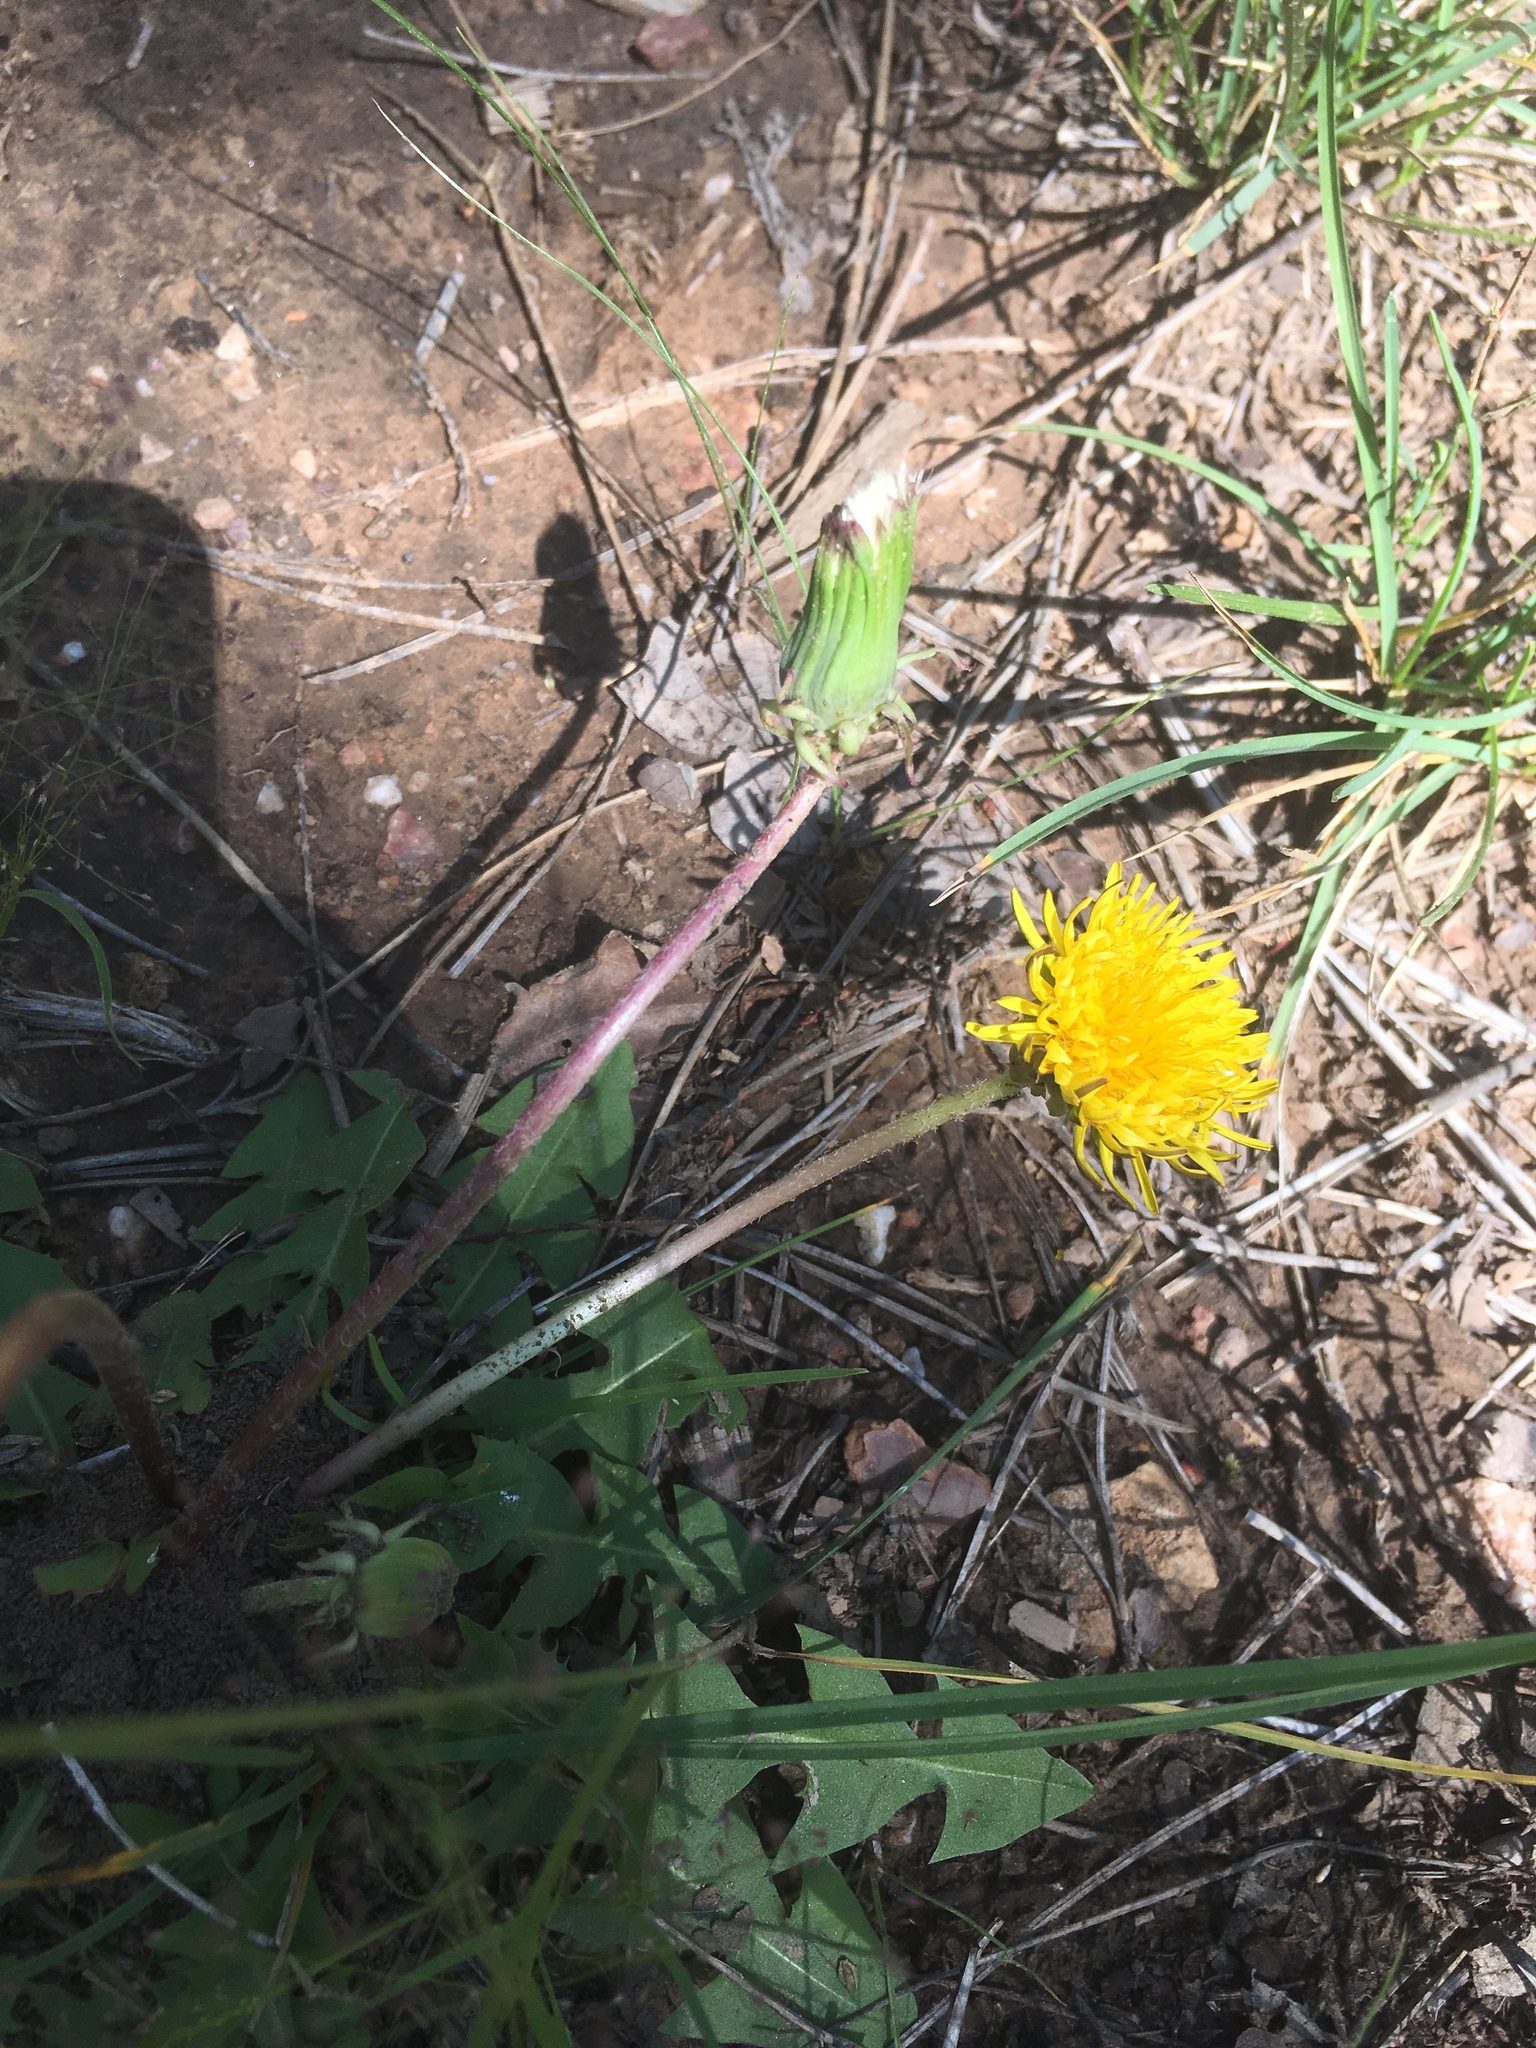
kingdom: Plantae
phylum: Tracheophyta
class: Magnoliopsida
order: Asterales
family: Asteraceae
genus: Taraxacum
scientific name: Taraxacum officinale
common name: Common dandelion
